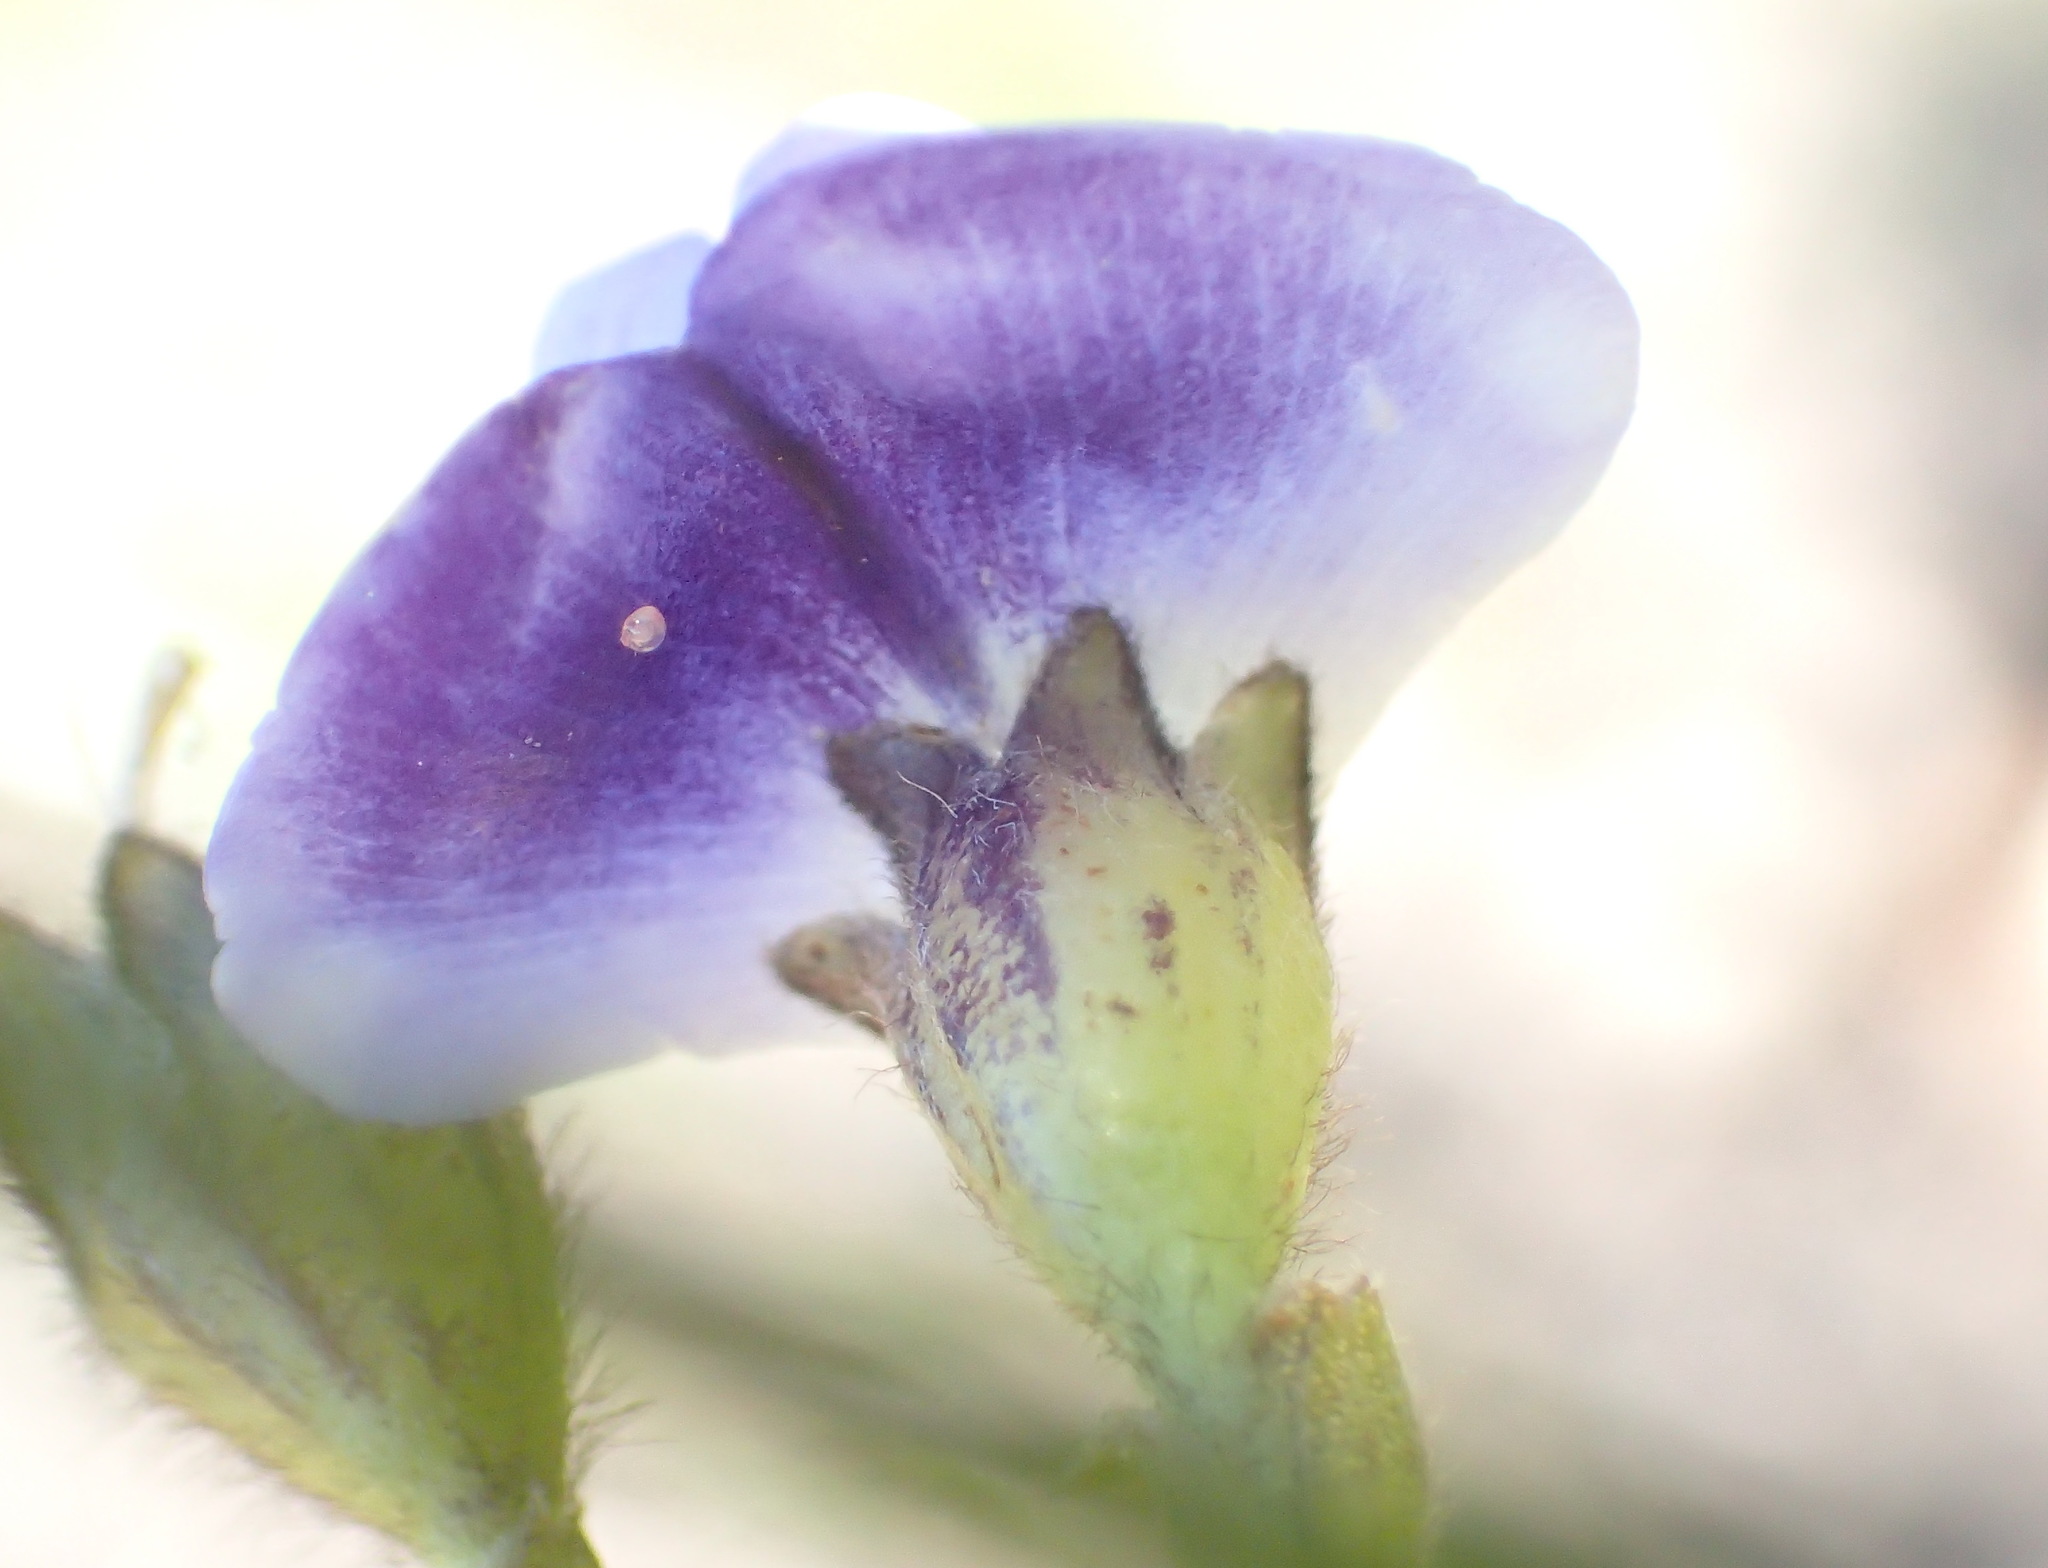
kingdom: Plantae
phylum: Tracheophyta
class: Magnoliopsida
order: Fabales
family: Fabaceae
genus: Psoralea
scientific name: Psoralea arborea
